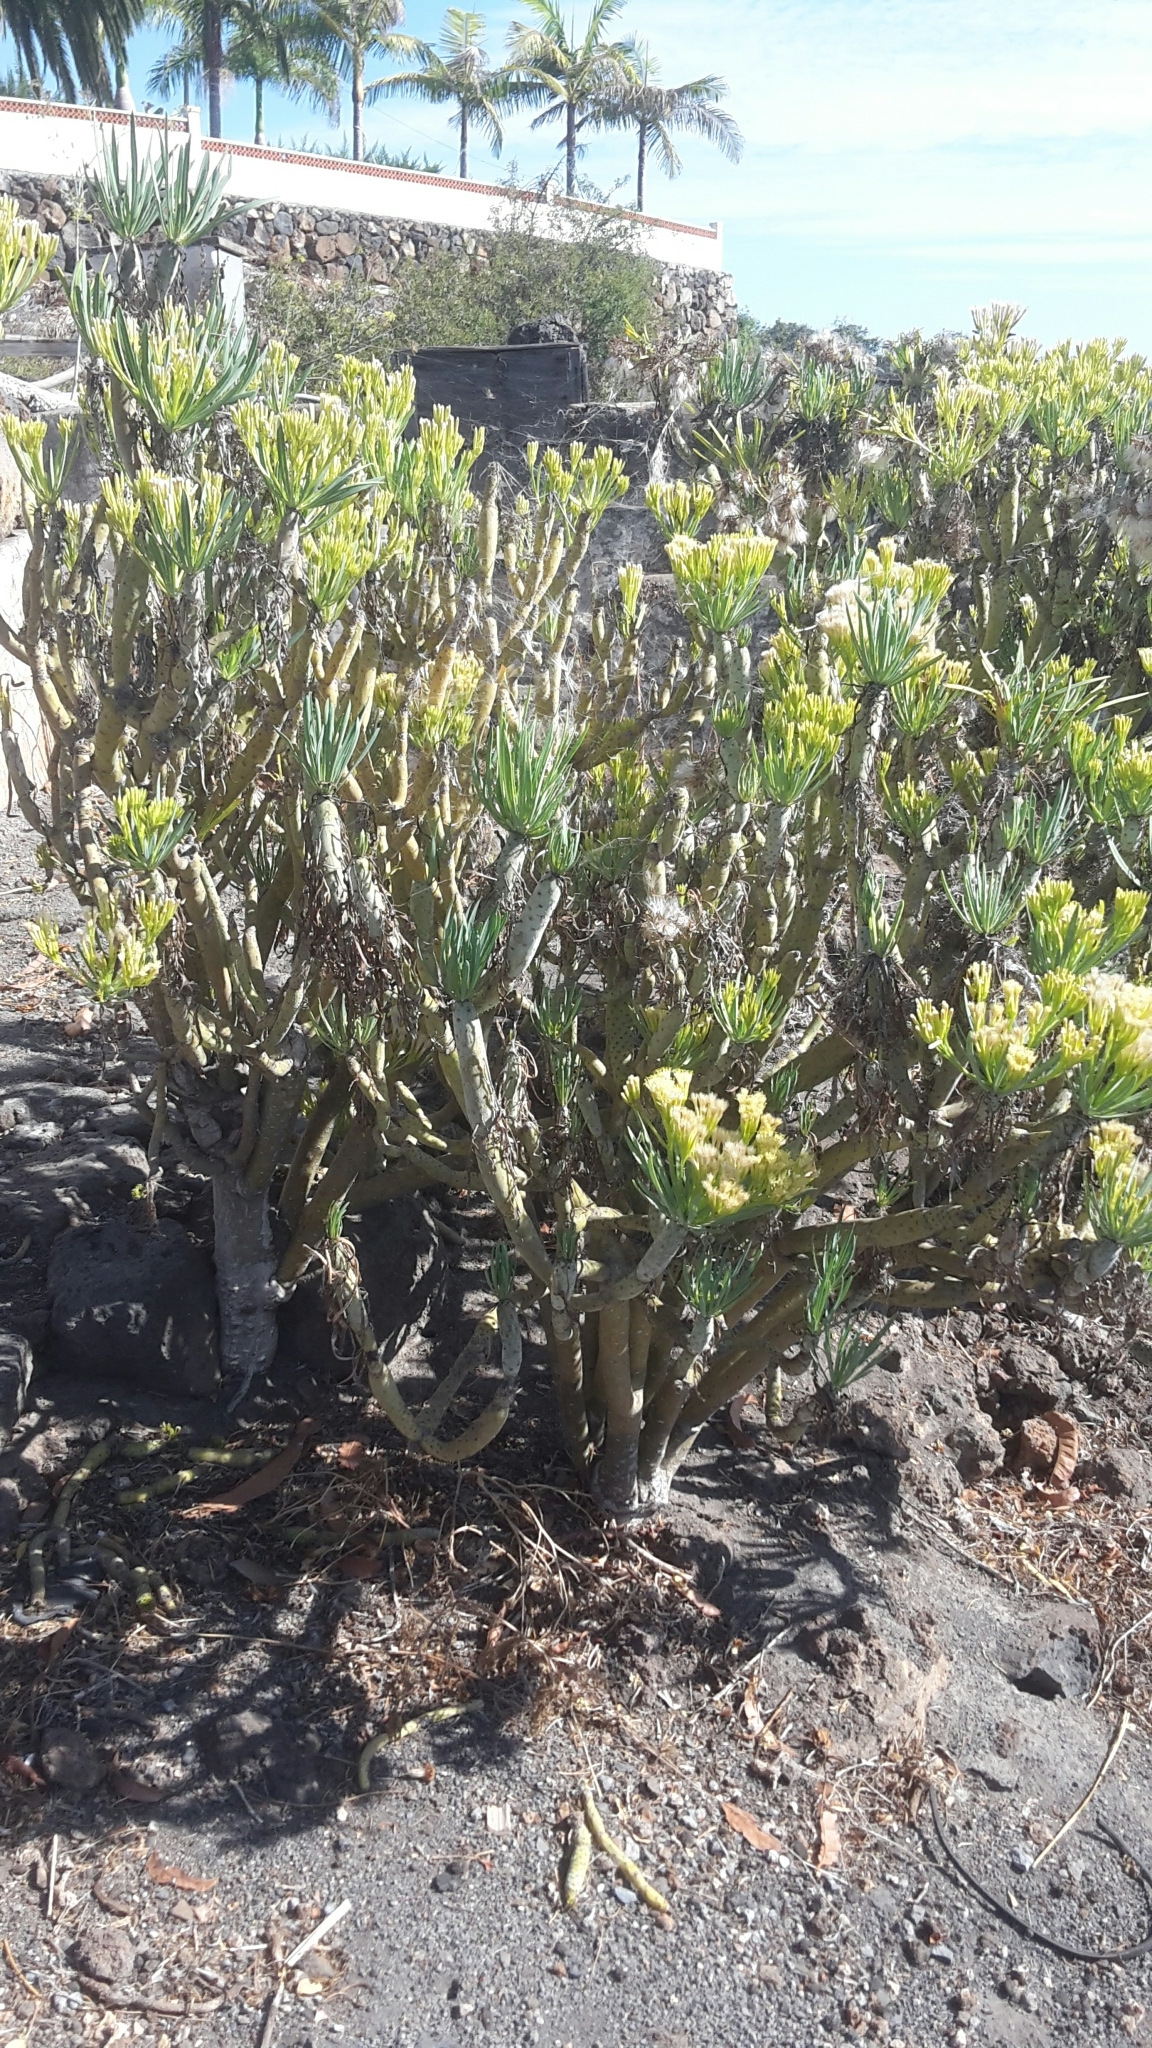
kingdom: Plantae
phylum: Tracheophyta
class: Magnoliopsida
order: Asterales
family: Asteraceae
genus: Kleinia
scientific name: Kleinia neriifolia
